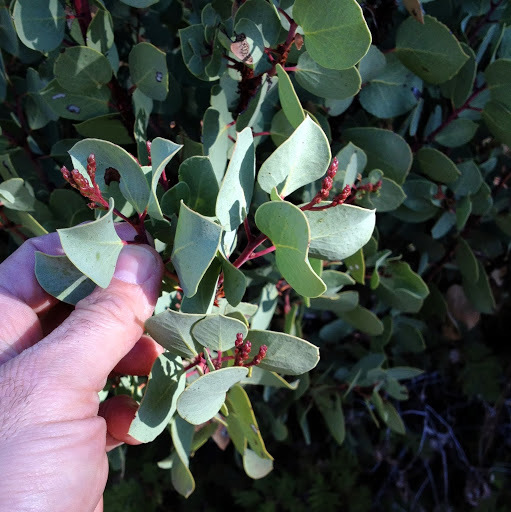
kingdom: Plantae
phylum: Tracheophyta
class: Magnoliopsida
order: Ericales
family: Ericaceae
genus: Arctostaphylos
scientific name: Arctostaphylos viscida
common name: White-leaf manzanita
